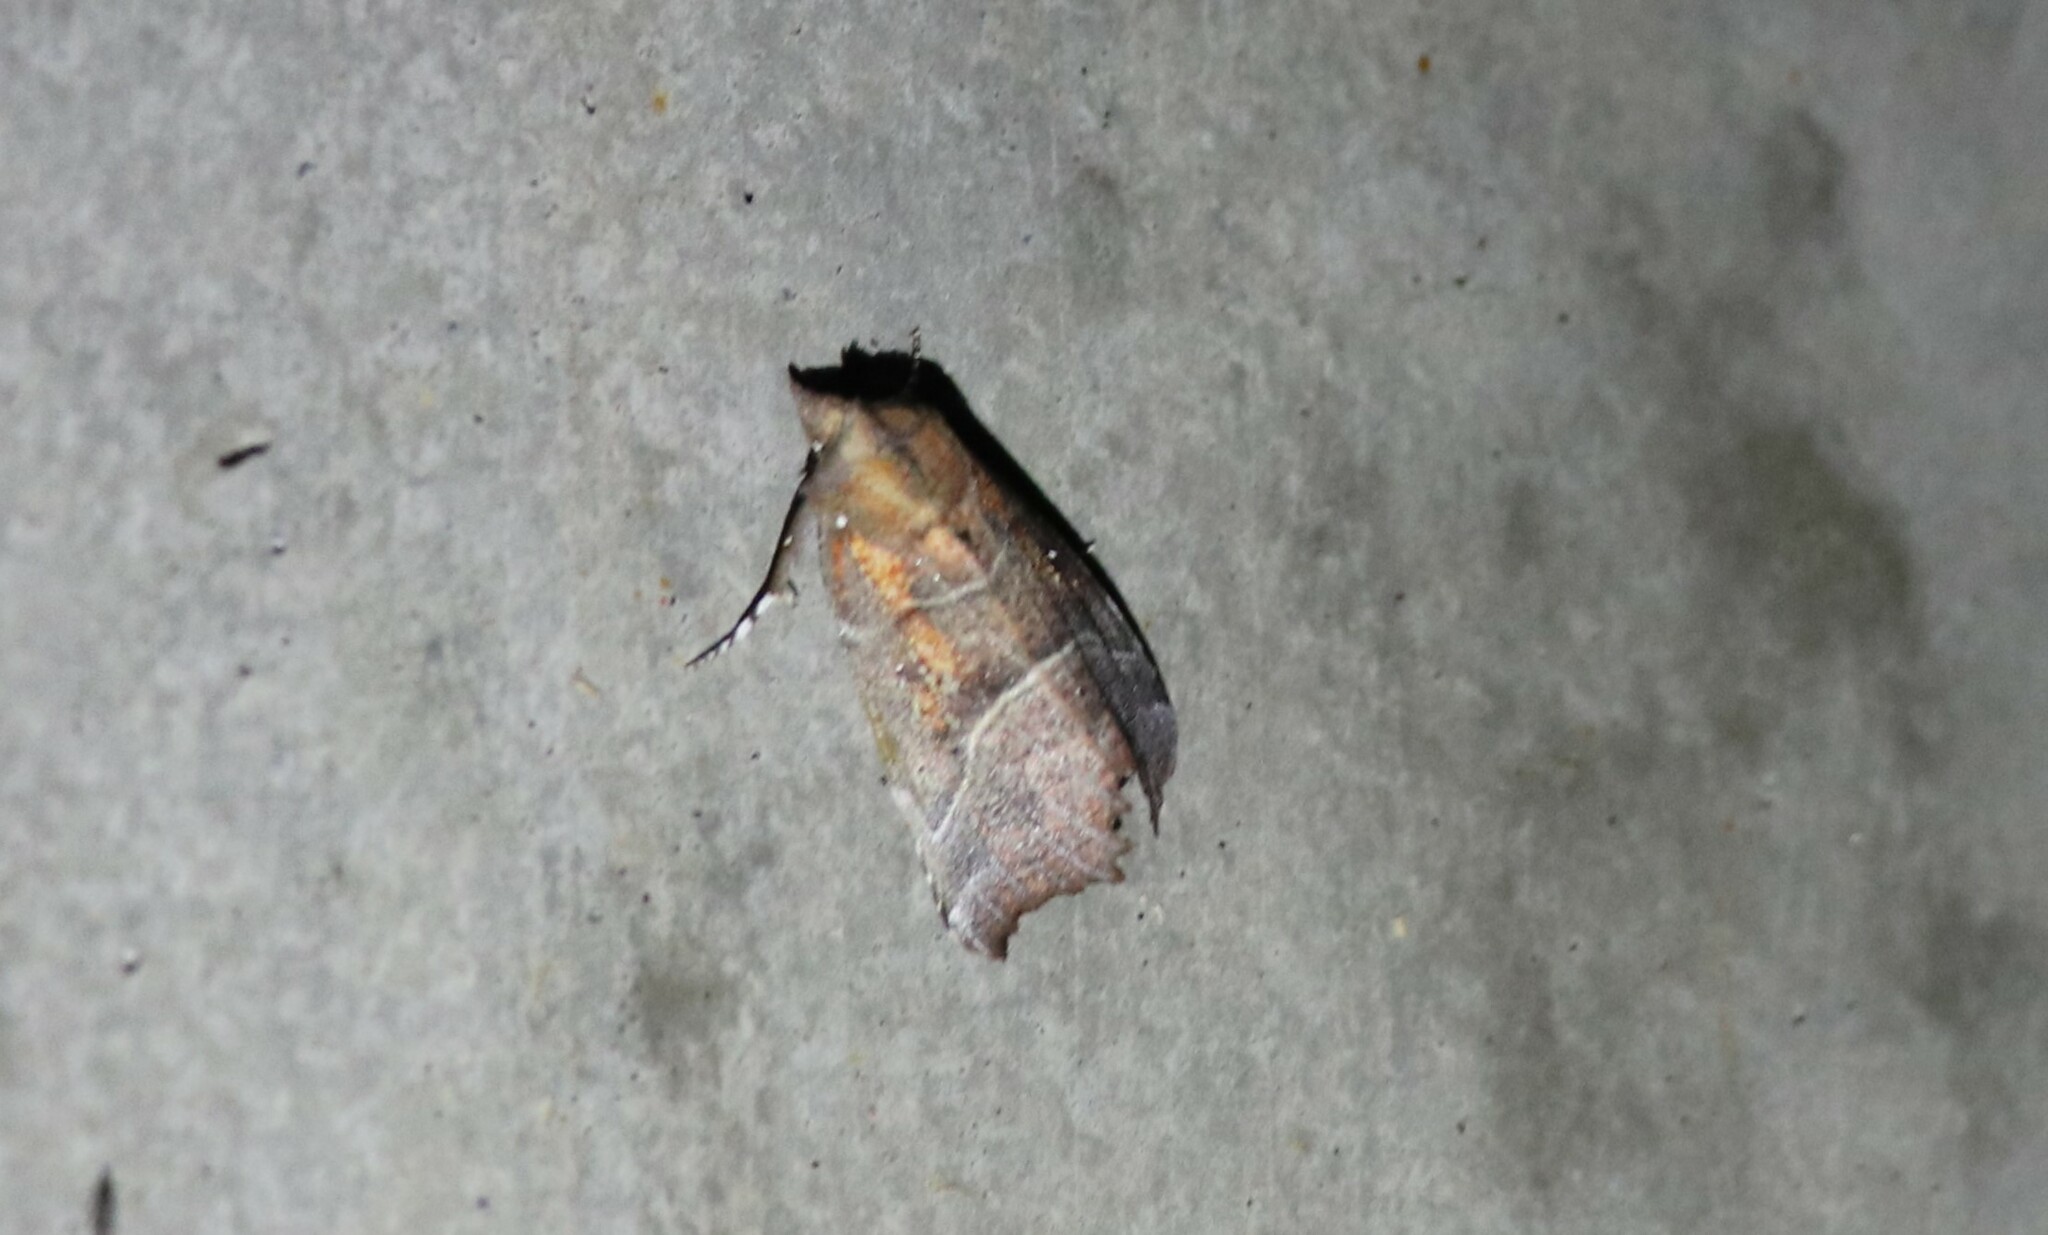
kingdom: Animalia
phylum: Arthropoda
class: Insecta
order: Lepidoptera
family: Erebidae
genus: Scoliopteryx
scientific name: Scoliopteryx libatrix
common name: Herald
